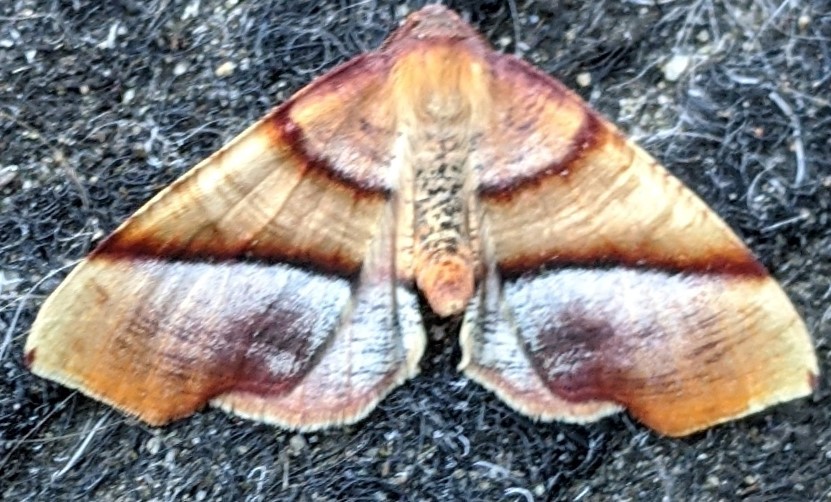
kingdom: Animalia
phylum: Arthropoda
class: Insecta
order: Lepidoptera
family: Geometridae
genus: Plagodis
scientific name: Plagodis phlogosaria
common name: Straight-lined plagodis
